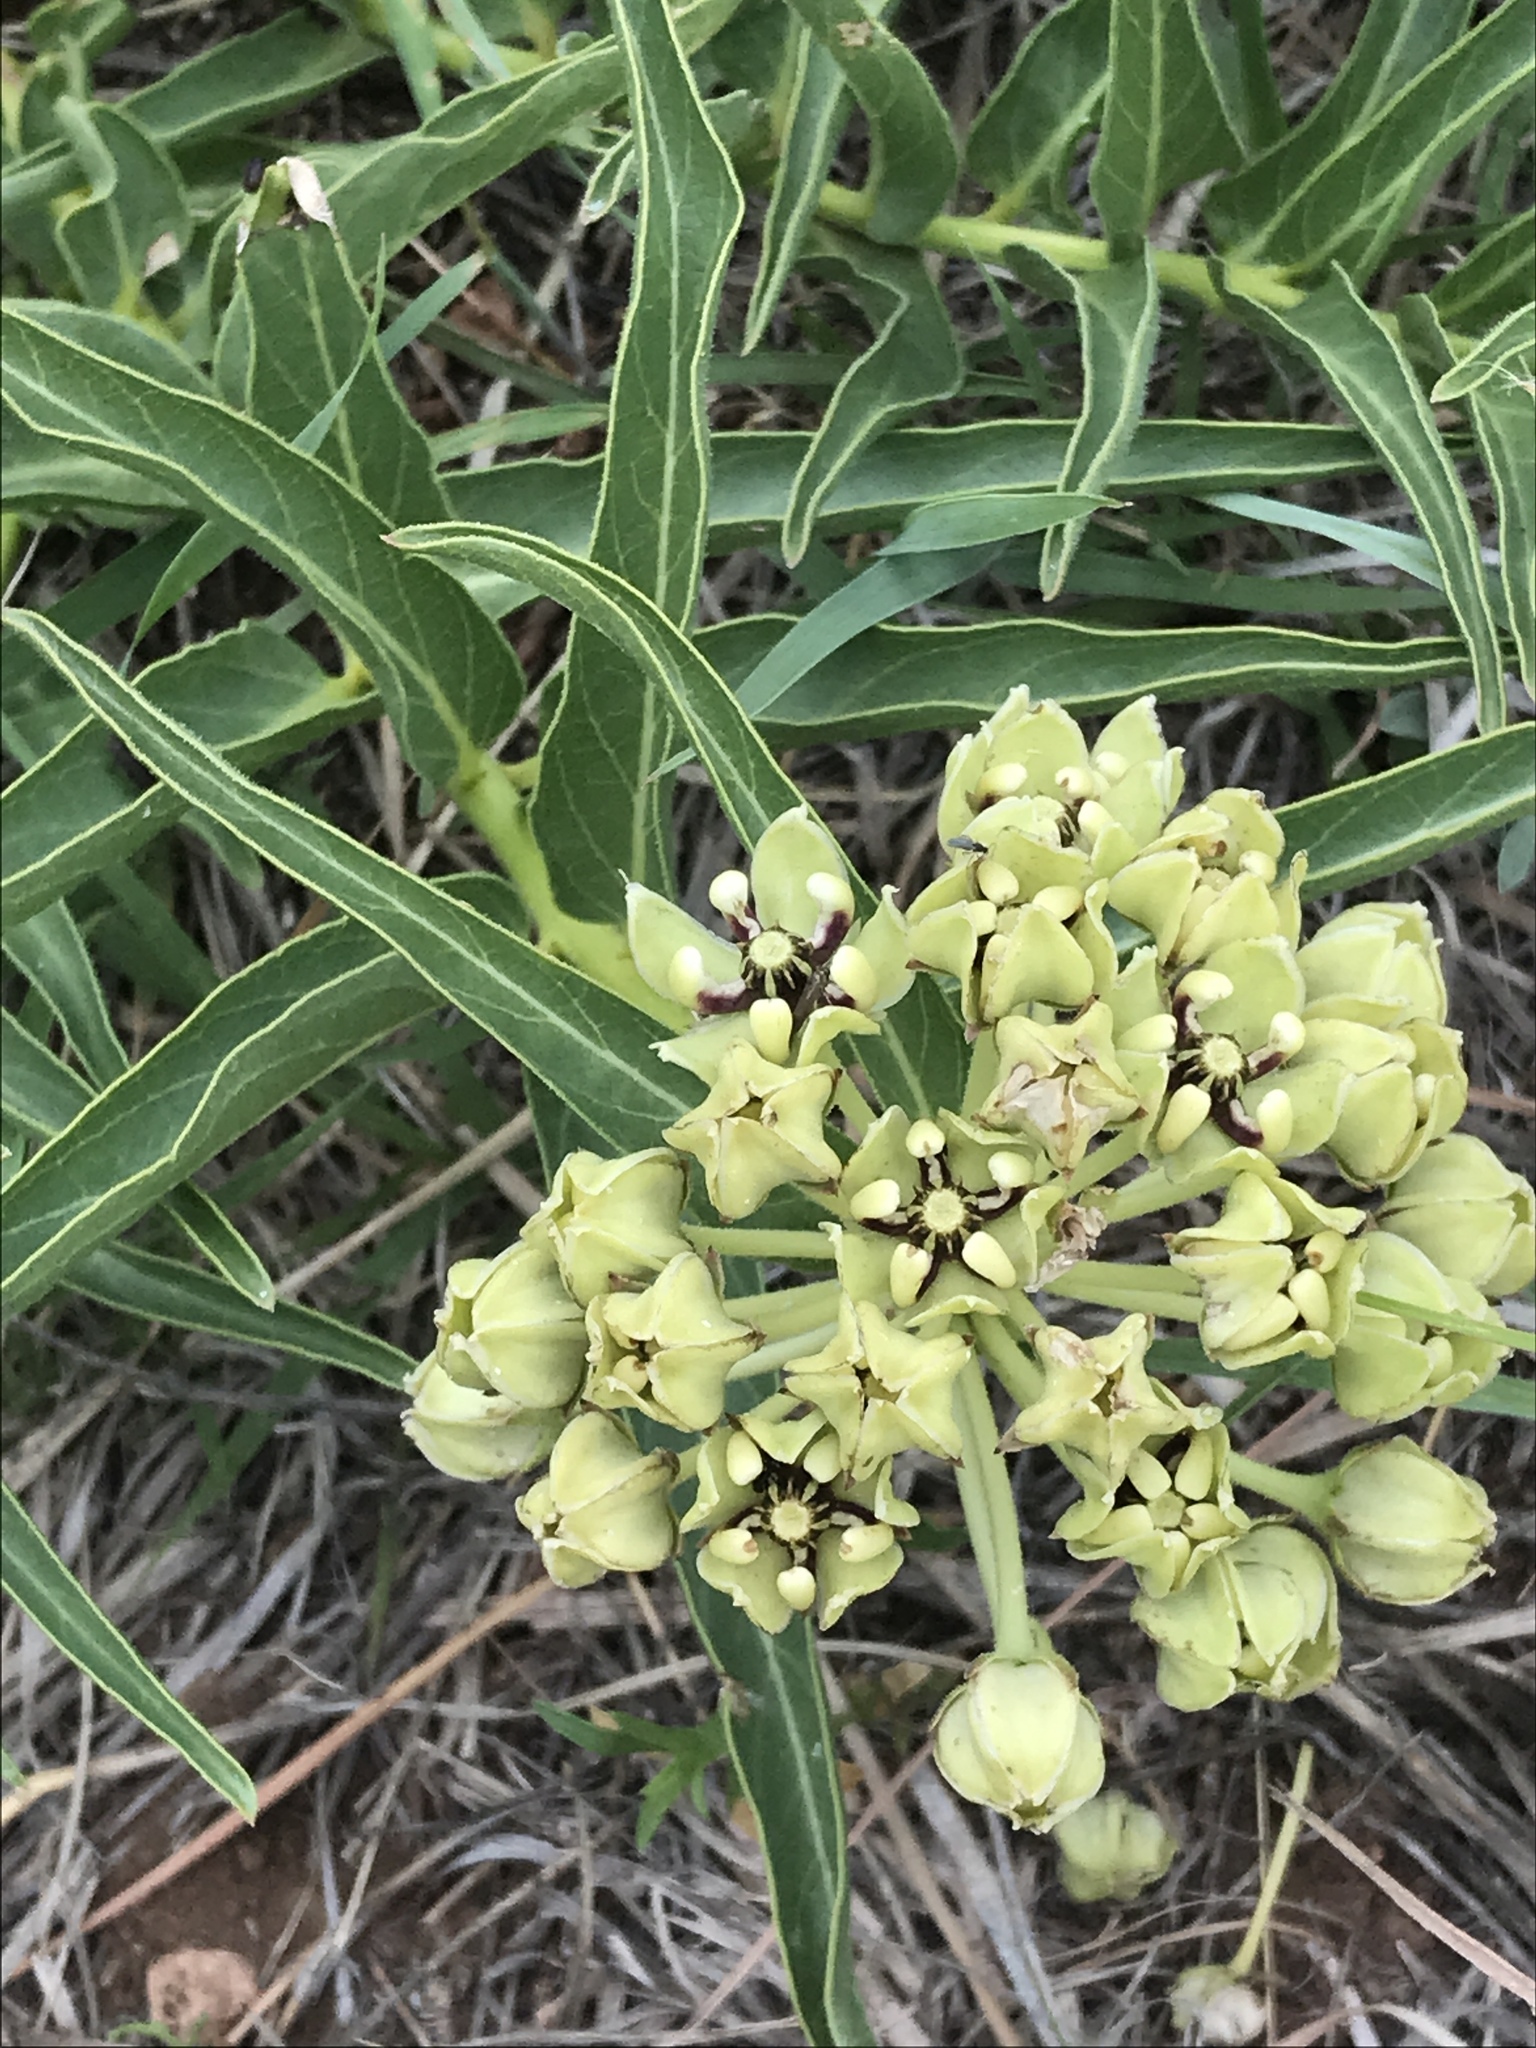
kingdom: Plantae
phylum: Tracheophyta
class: Magnoliopsida
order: Gentianales
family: Apocynaceae
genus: Asclepias
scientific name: Asclepias asperula
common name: Antelope horns
